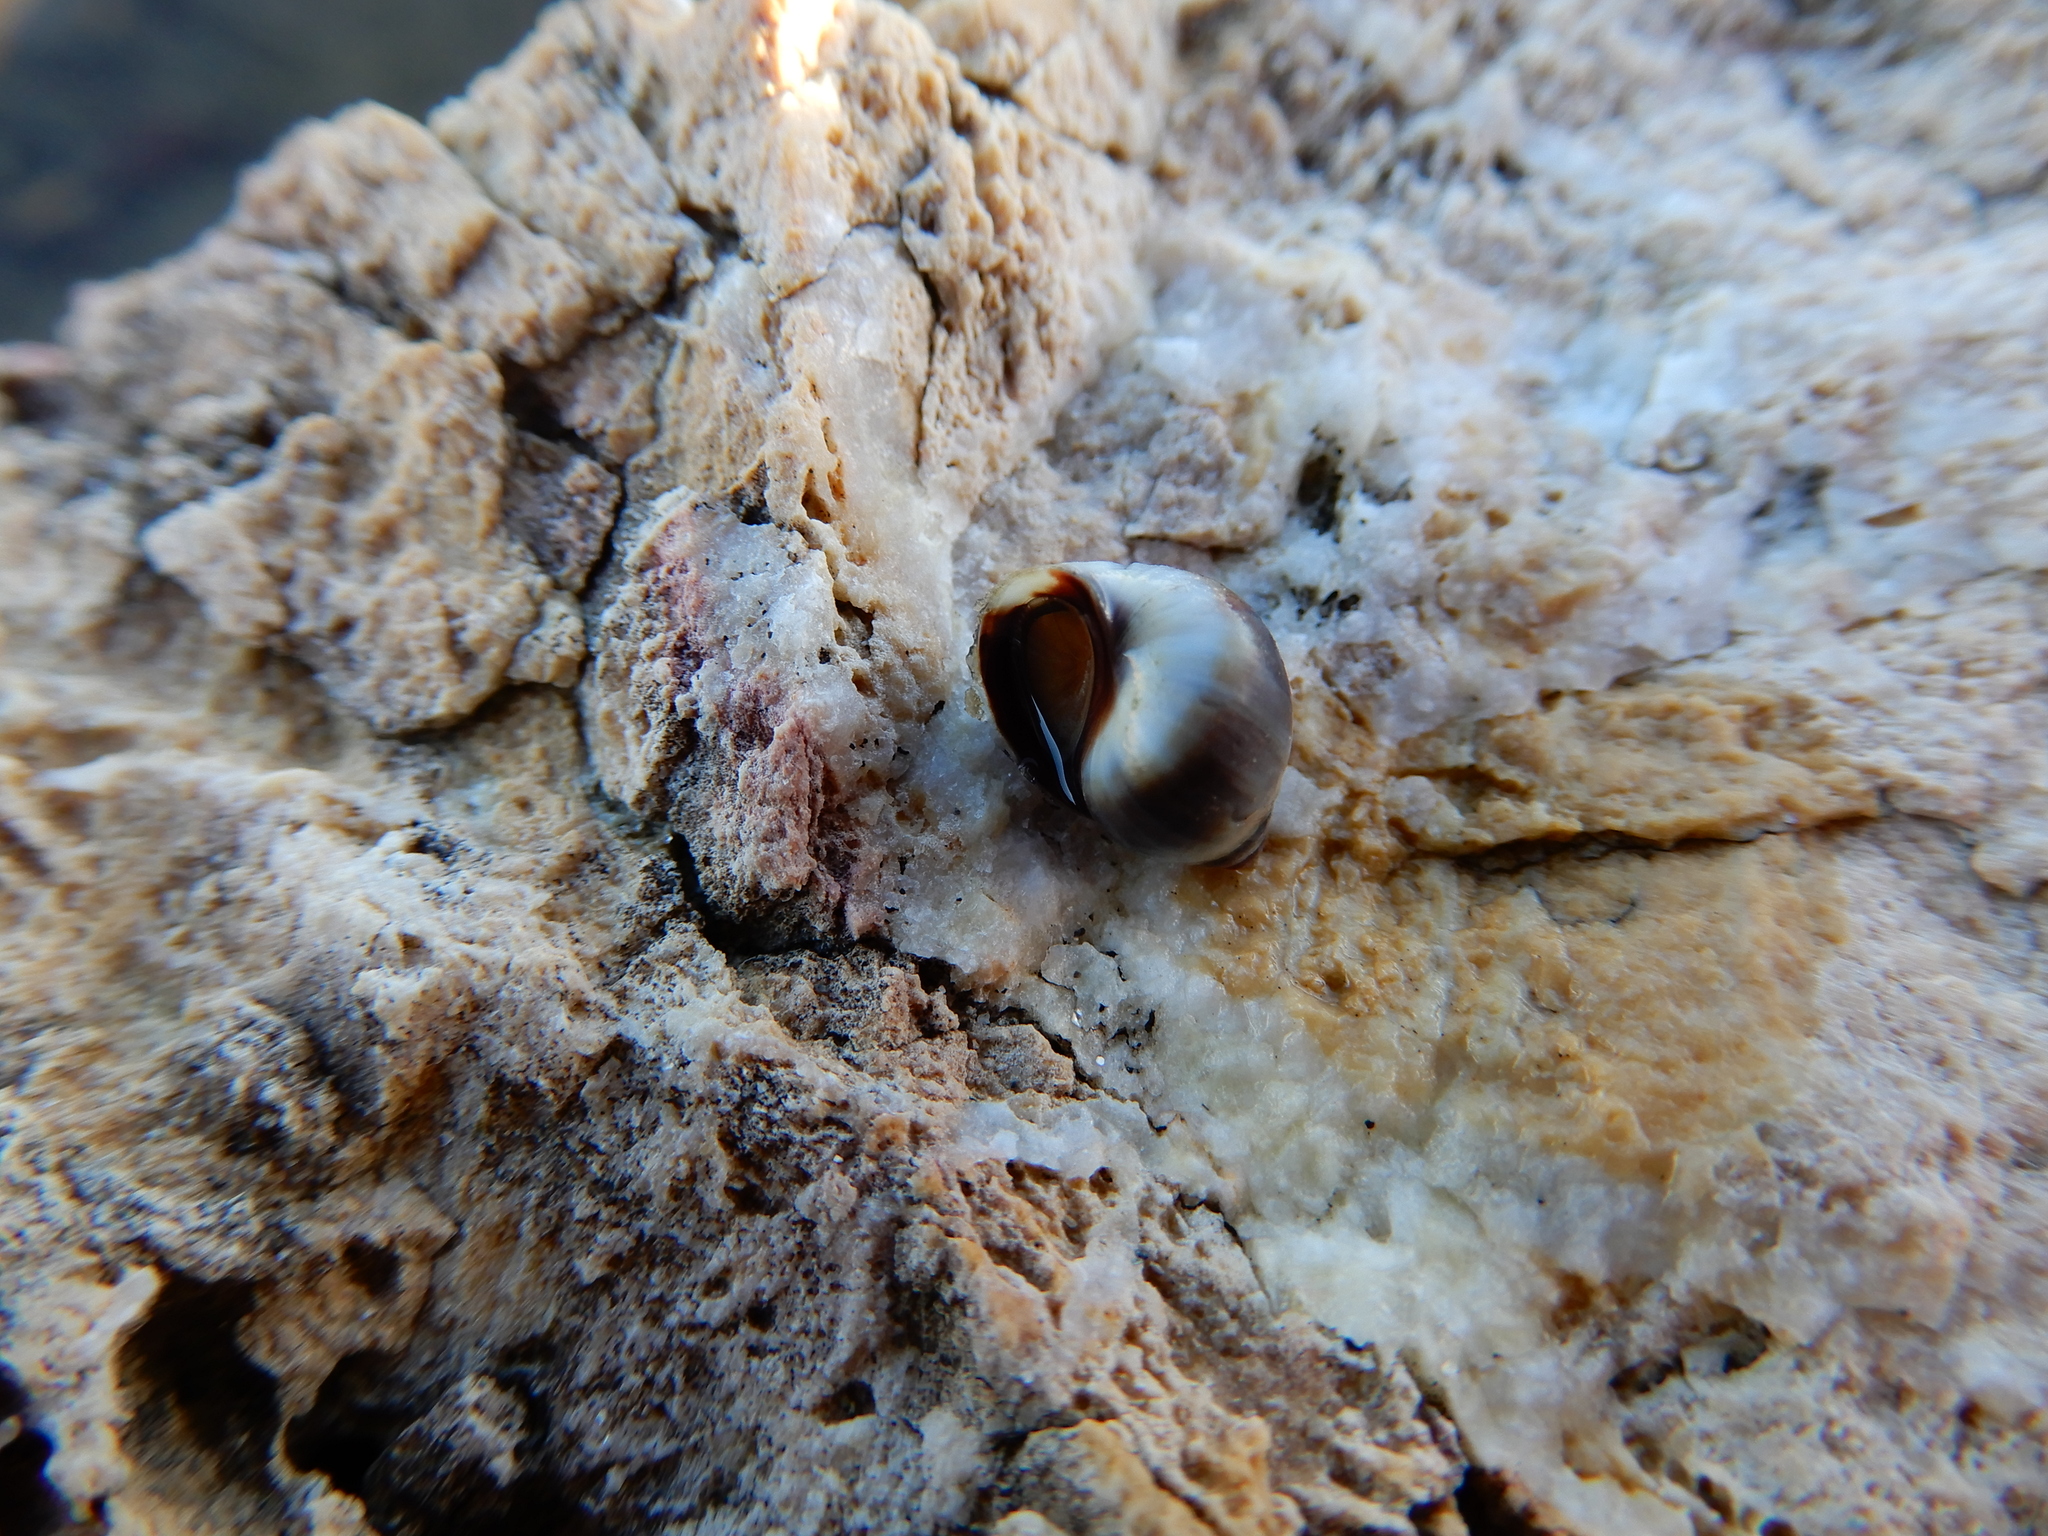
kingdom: Animalia
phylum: Mollusca
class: Gastropoda
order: Littorinimorpha
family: Littorinidae
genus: Melarhaphe
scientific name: Melarhaphe neritoides
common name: Small periwinkle
